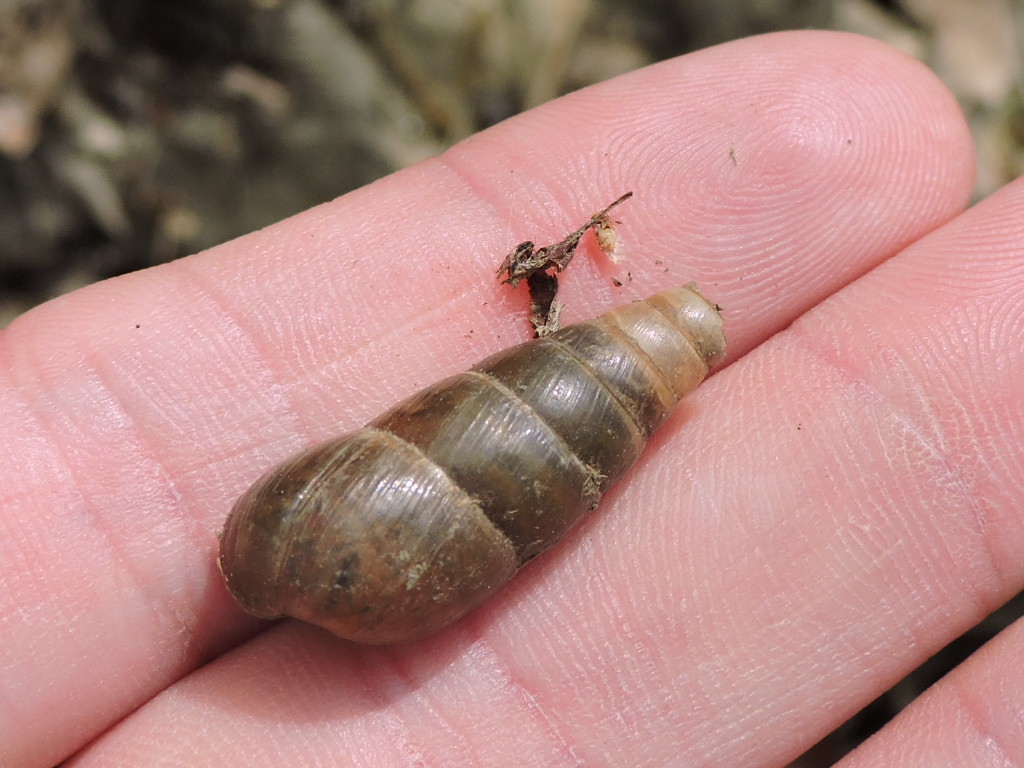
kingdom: Animalia
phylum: Mollusca
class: Gastropoda
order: Stylommatophora
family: Achatinidae
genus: Rumina
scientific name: Rumina decollata
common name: Decollate snail
